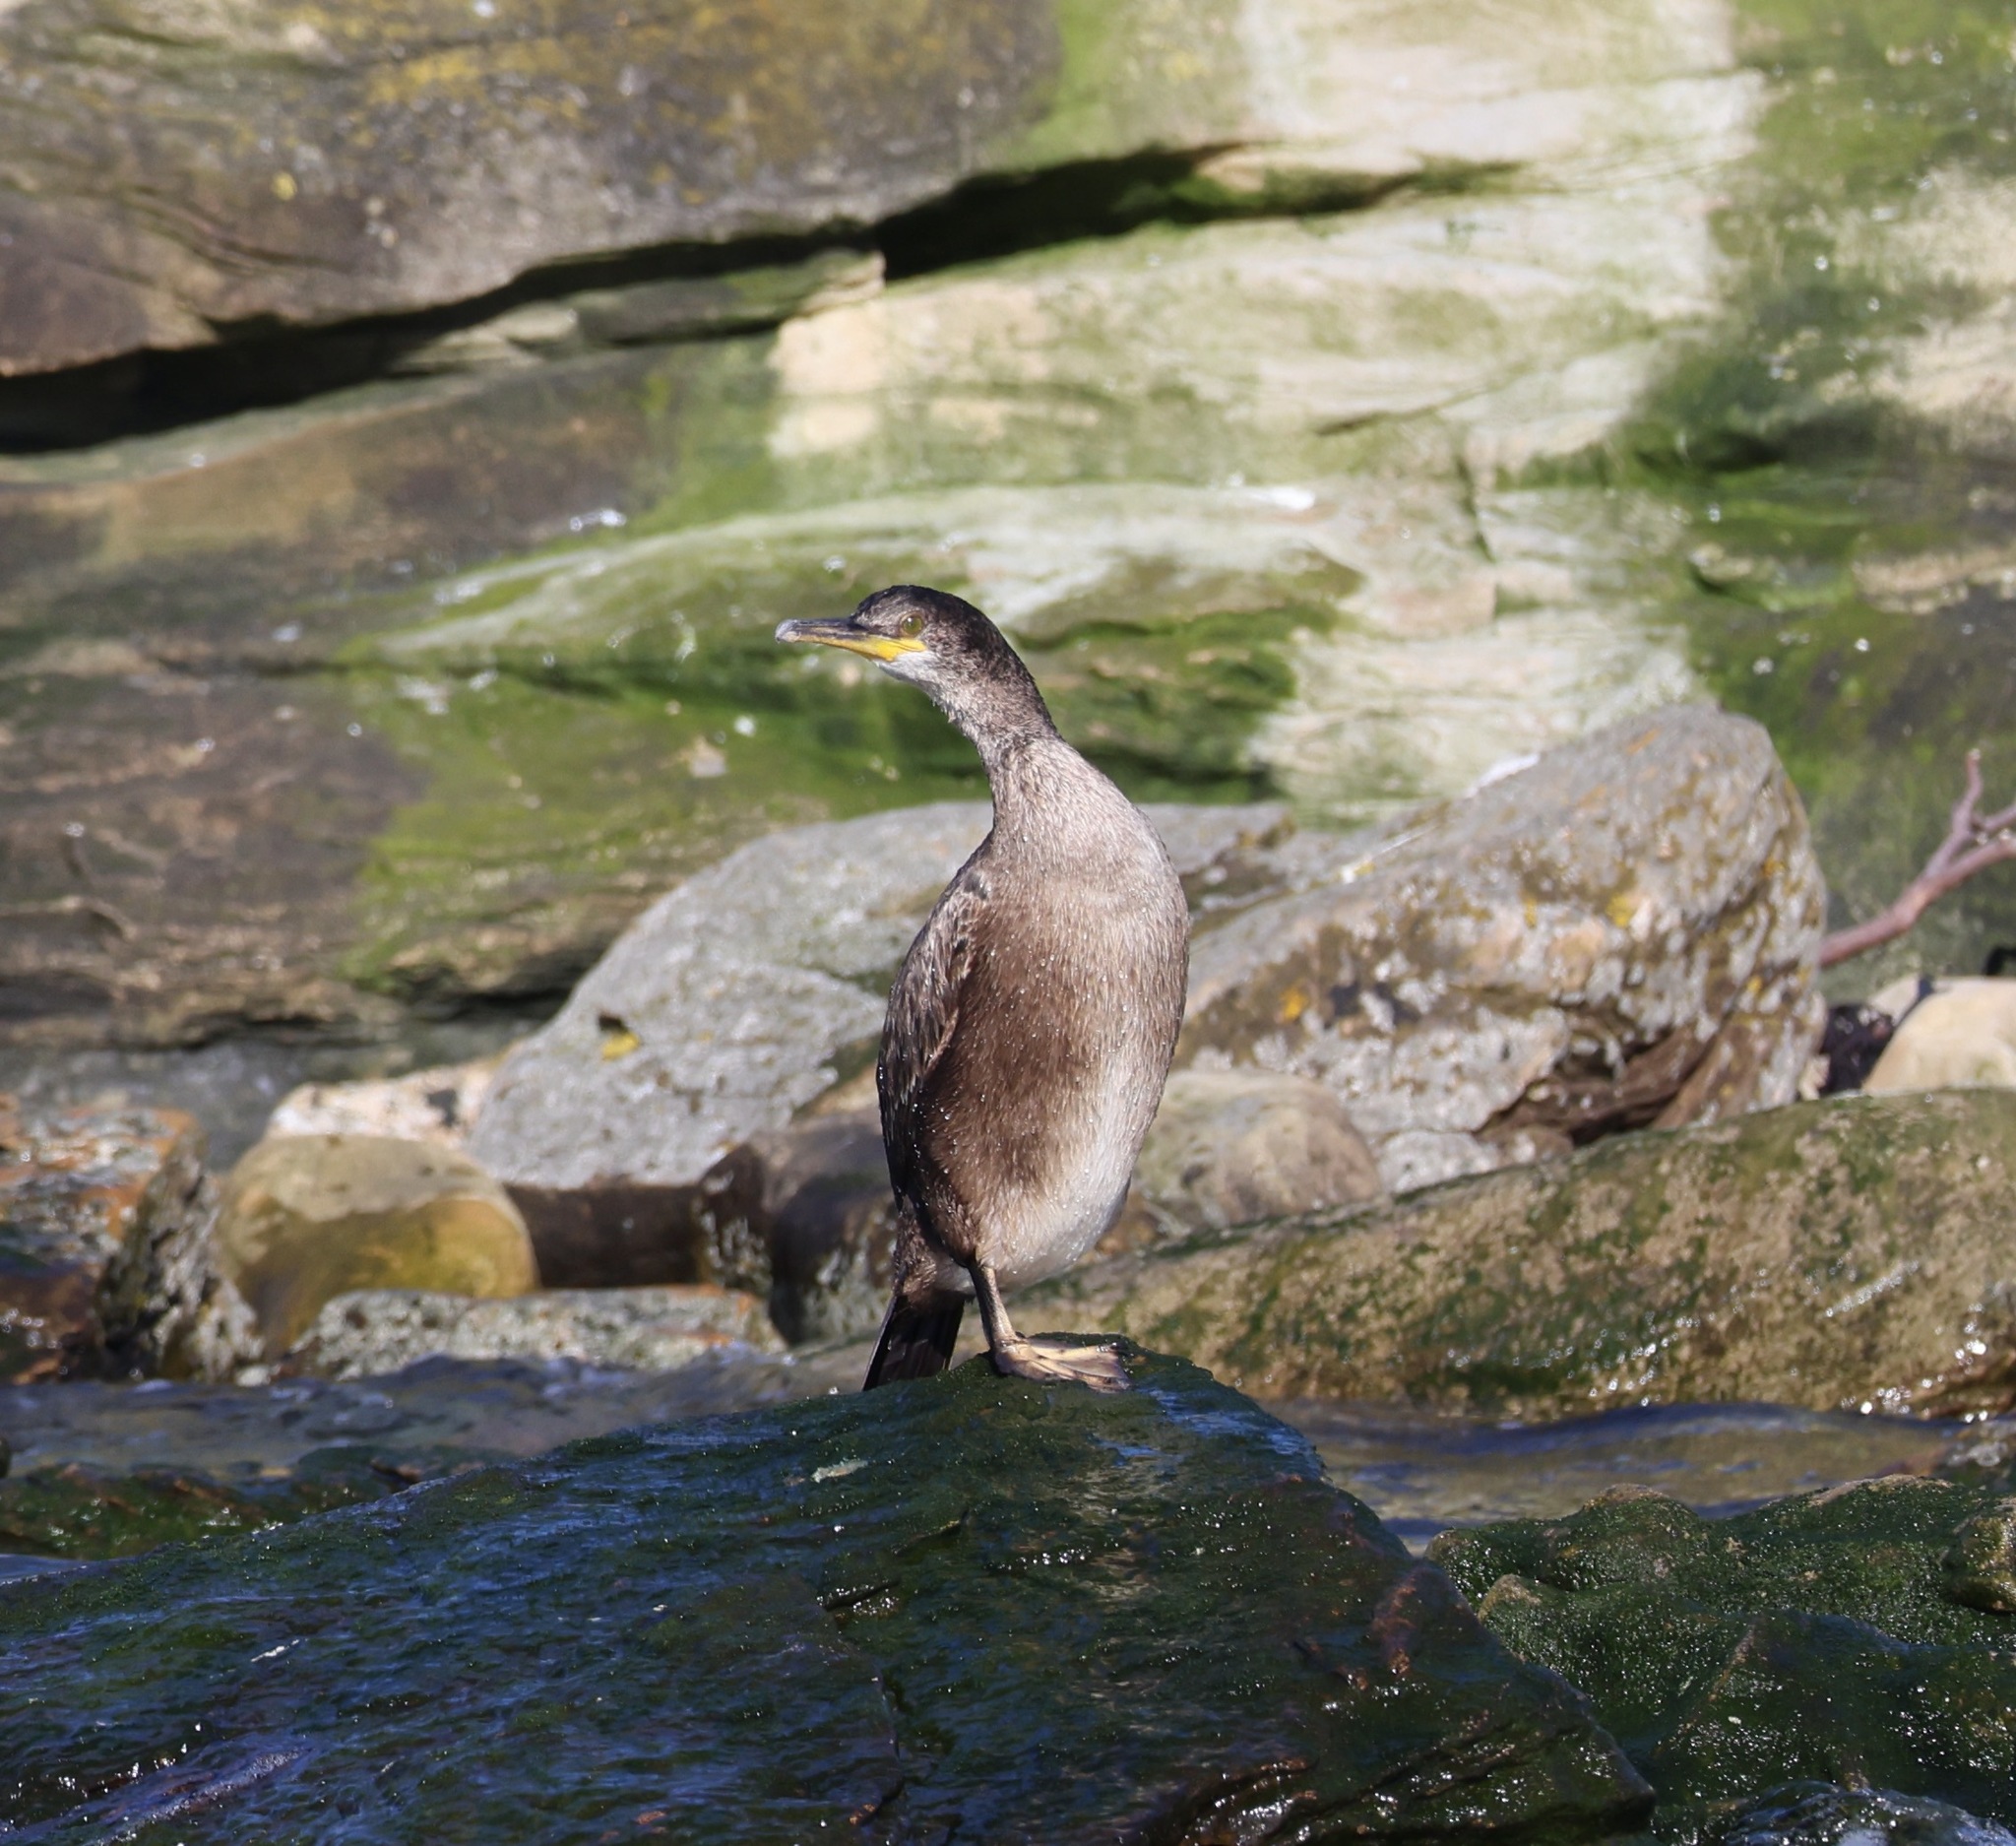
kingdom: Animalia
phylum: Chordata
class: Aves
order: Suliformes
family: Phalacrocoracidae
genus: Phalacrocorax
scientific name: Phalacrocorax aristotelis
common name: European shag
